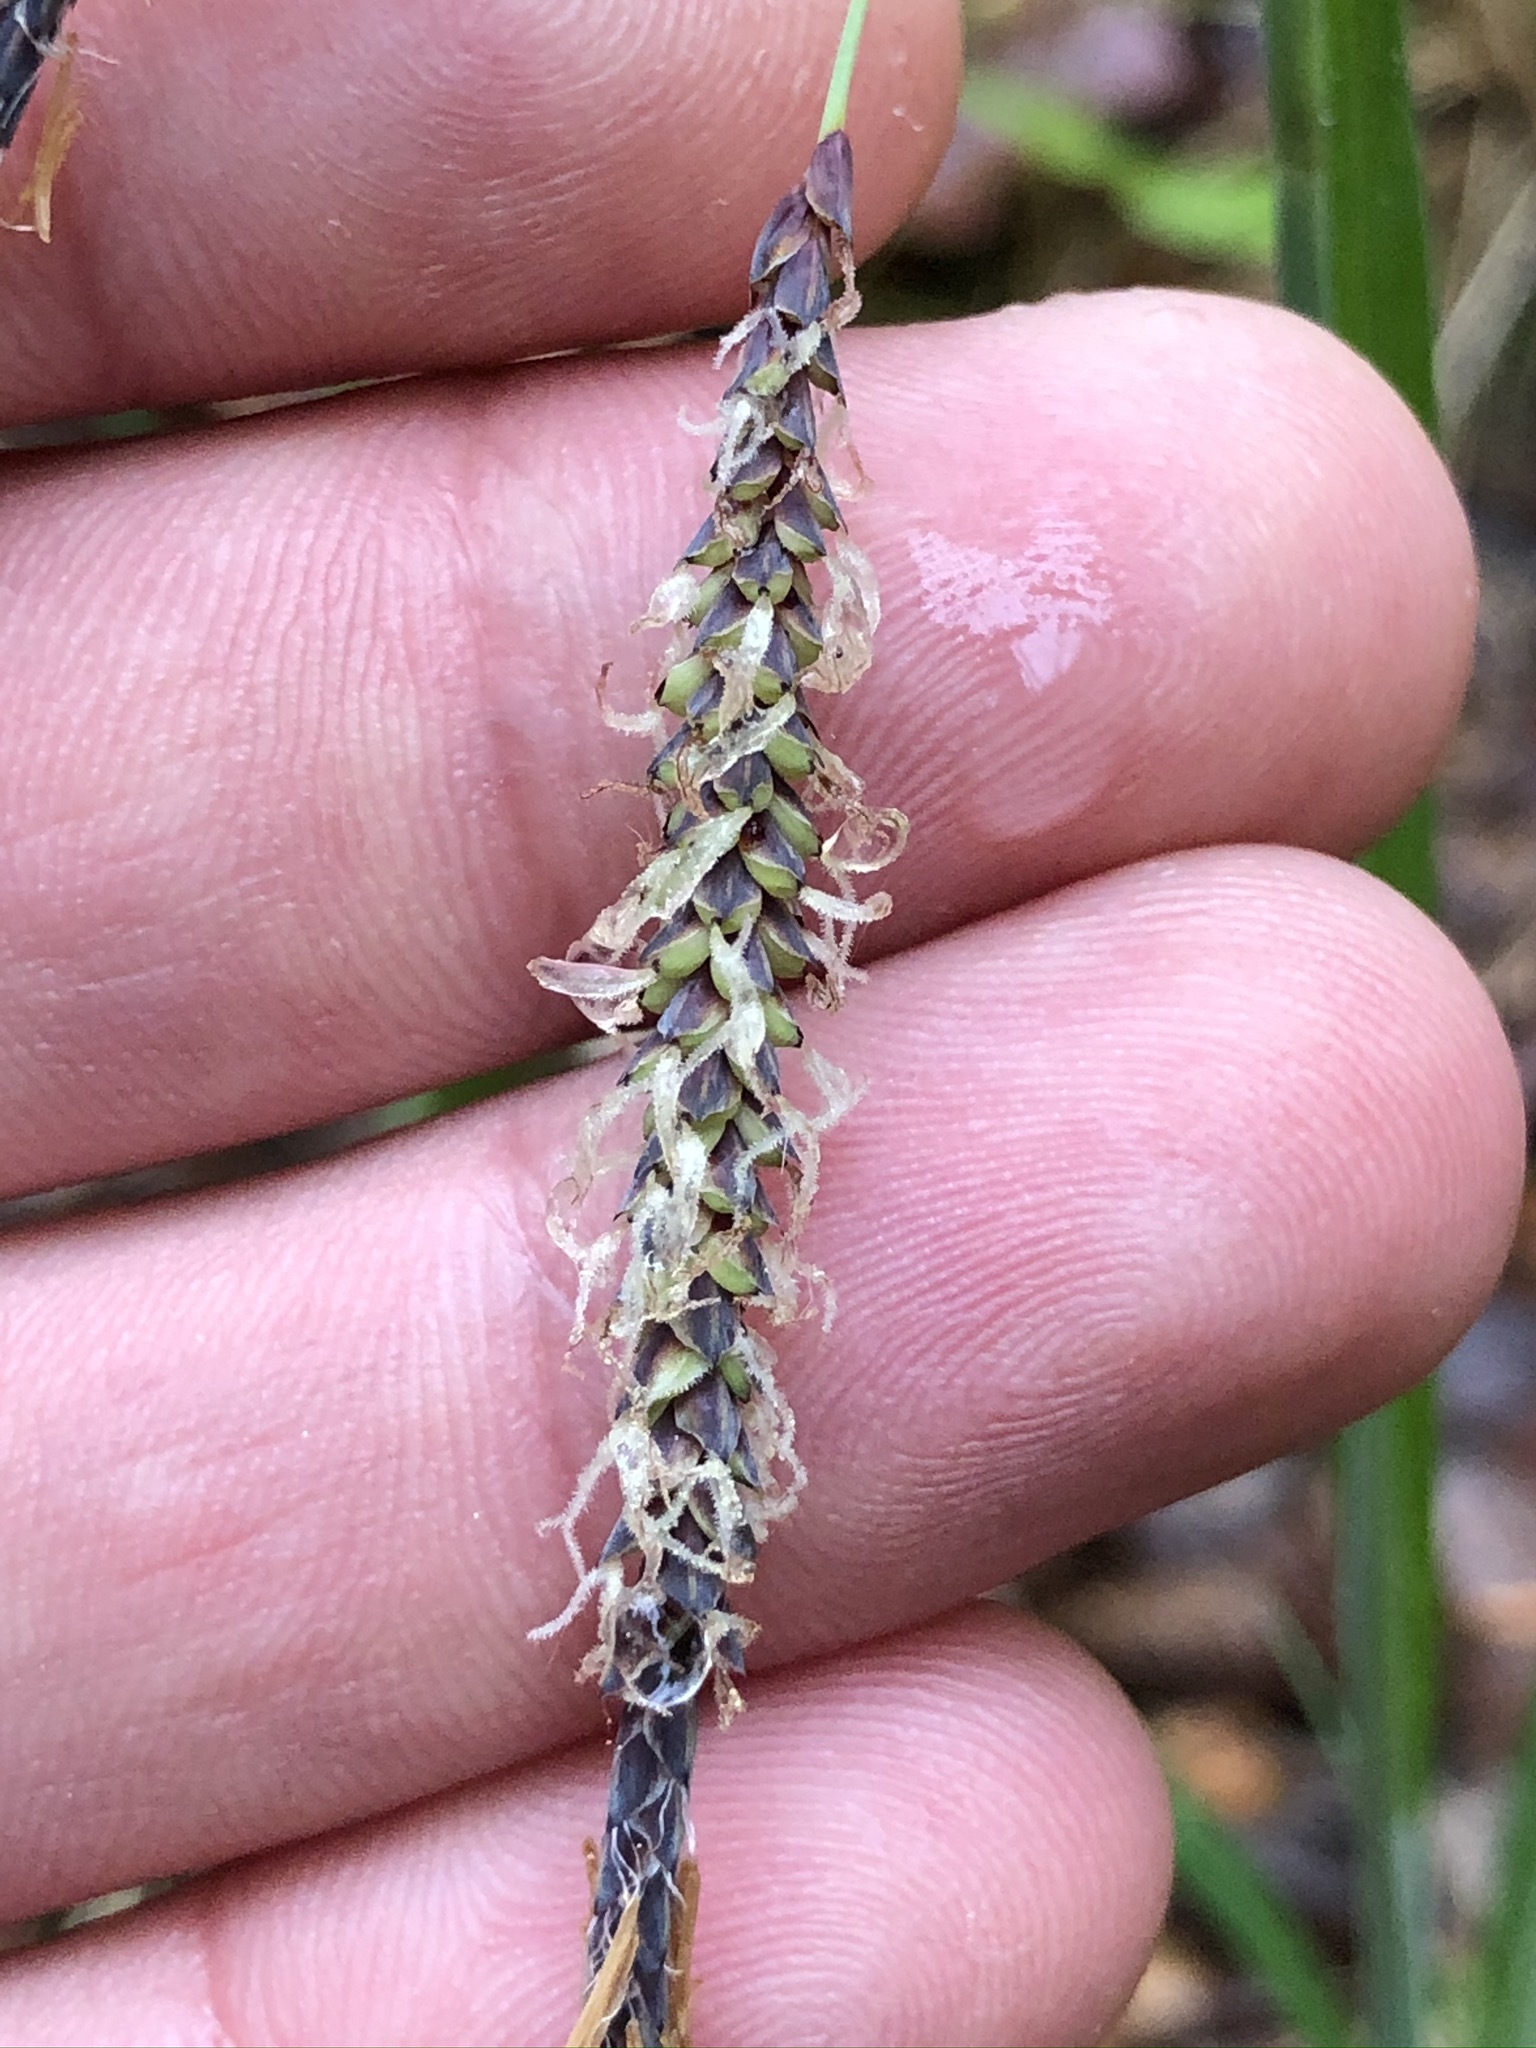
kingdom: Plantae
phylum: Tracheophyta
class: Liliopsida
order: Poales
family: Cyperaceae
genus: Carex
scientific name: Carex flacca
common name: Glaucous sedge
